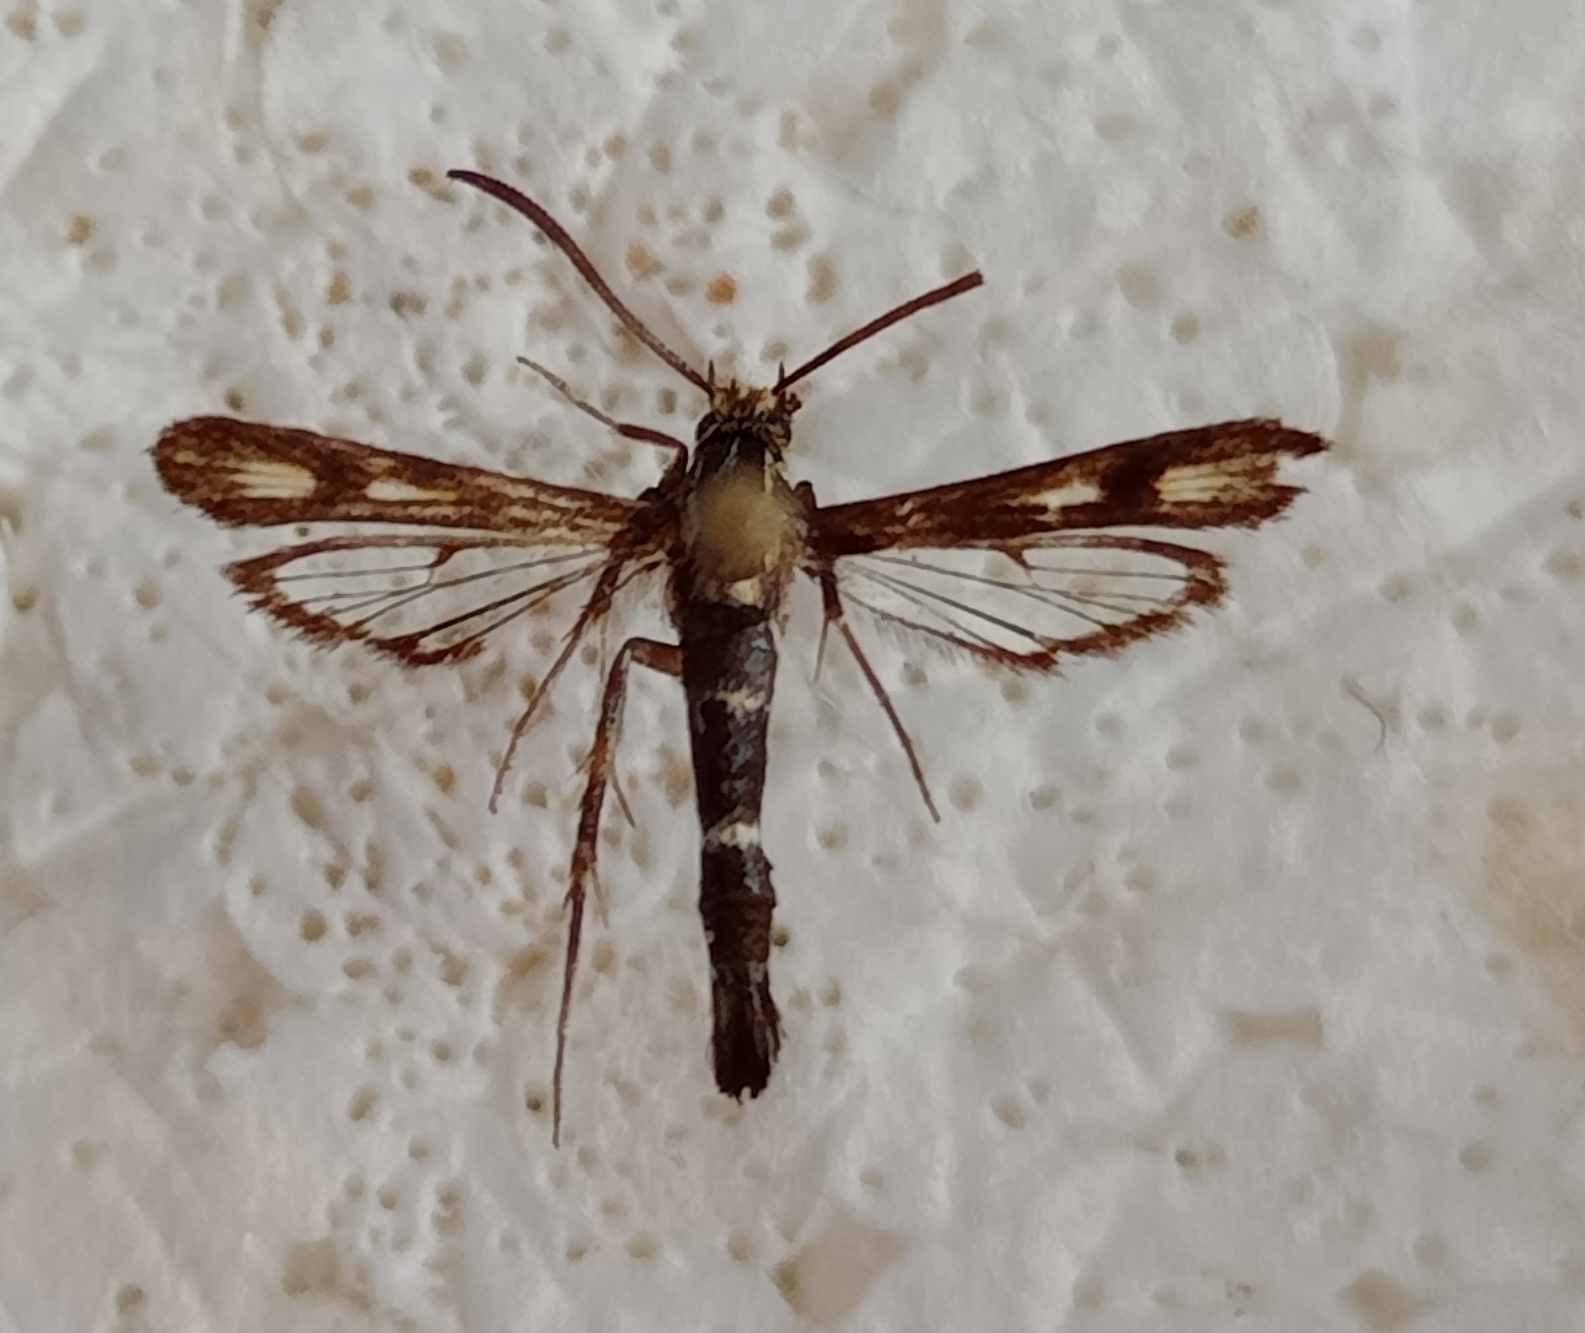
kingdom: Animalia
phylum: Arthropoda
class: Insecta
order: Lepidoptera
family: Sesiidae
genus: Chamaesphecia
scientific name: Chamaesphecia alysoniformis
